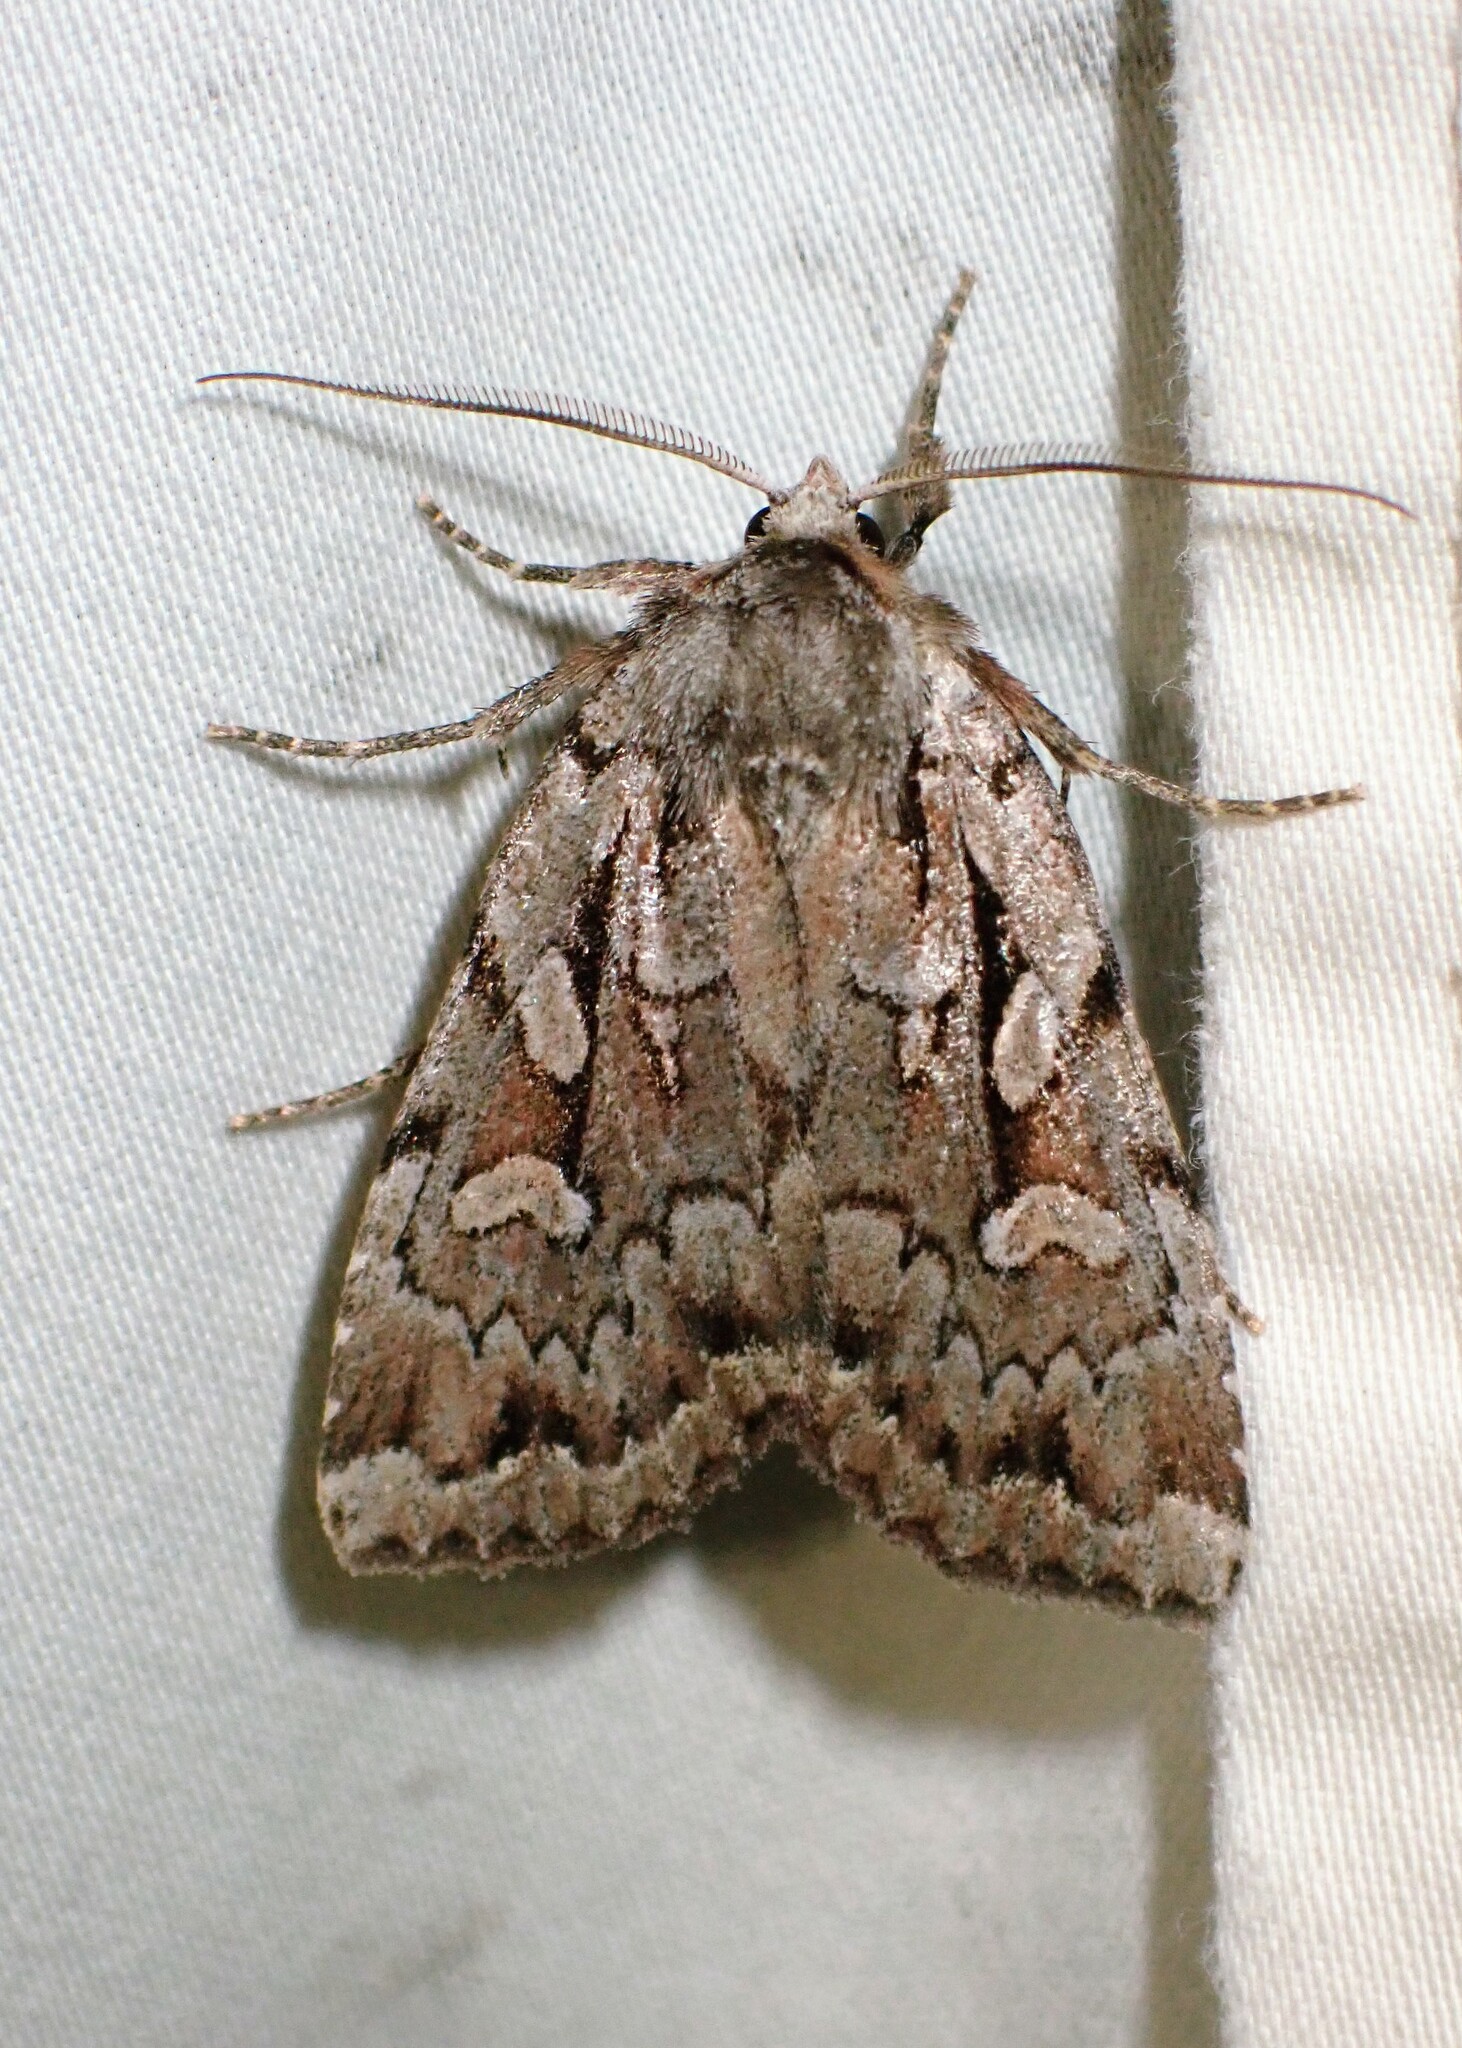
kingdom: Animalia
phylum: Arthropoda
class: Insecta
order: Lepidoptera
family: Noctuidae
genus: Xestia
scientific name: Xestia badicollis
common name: Northern variable dart
